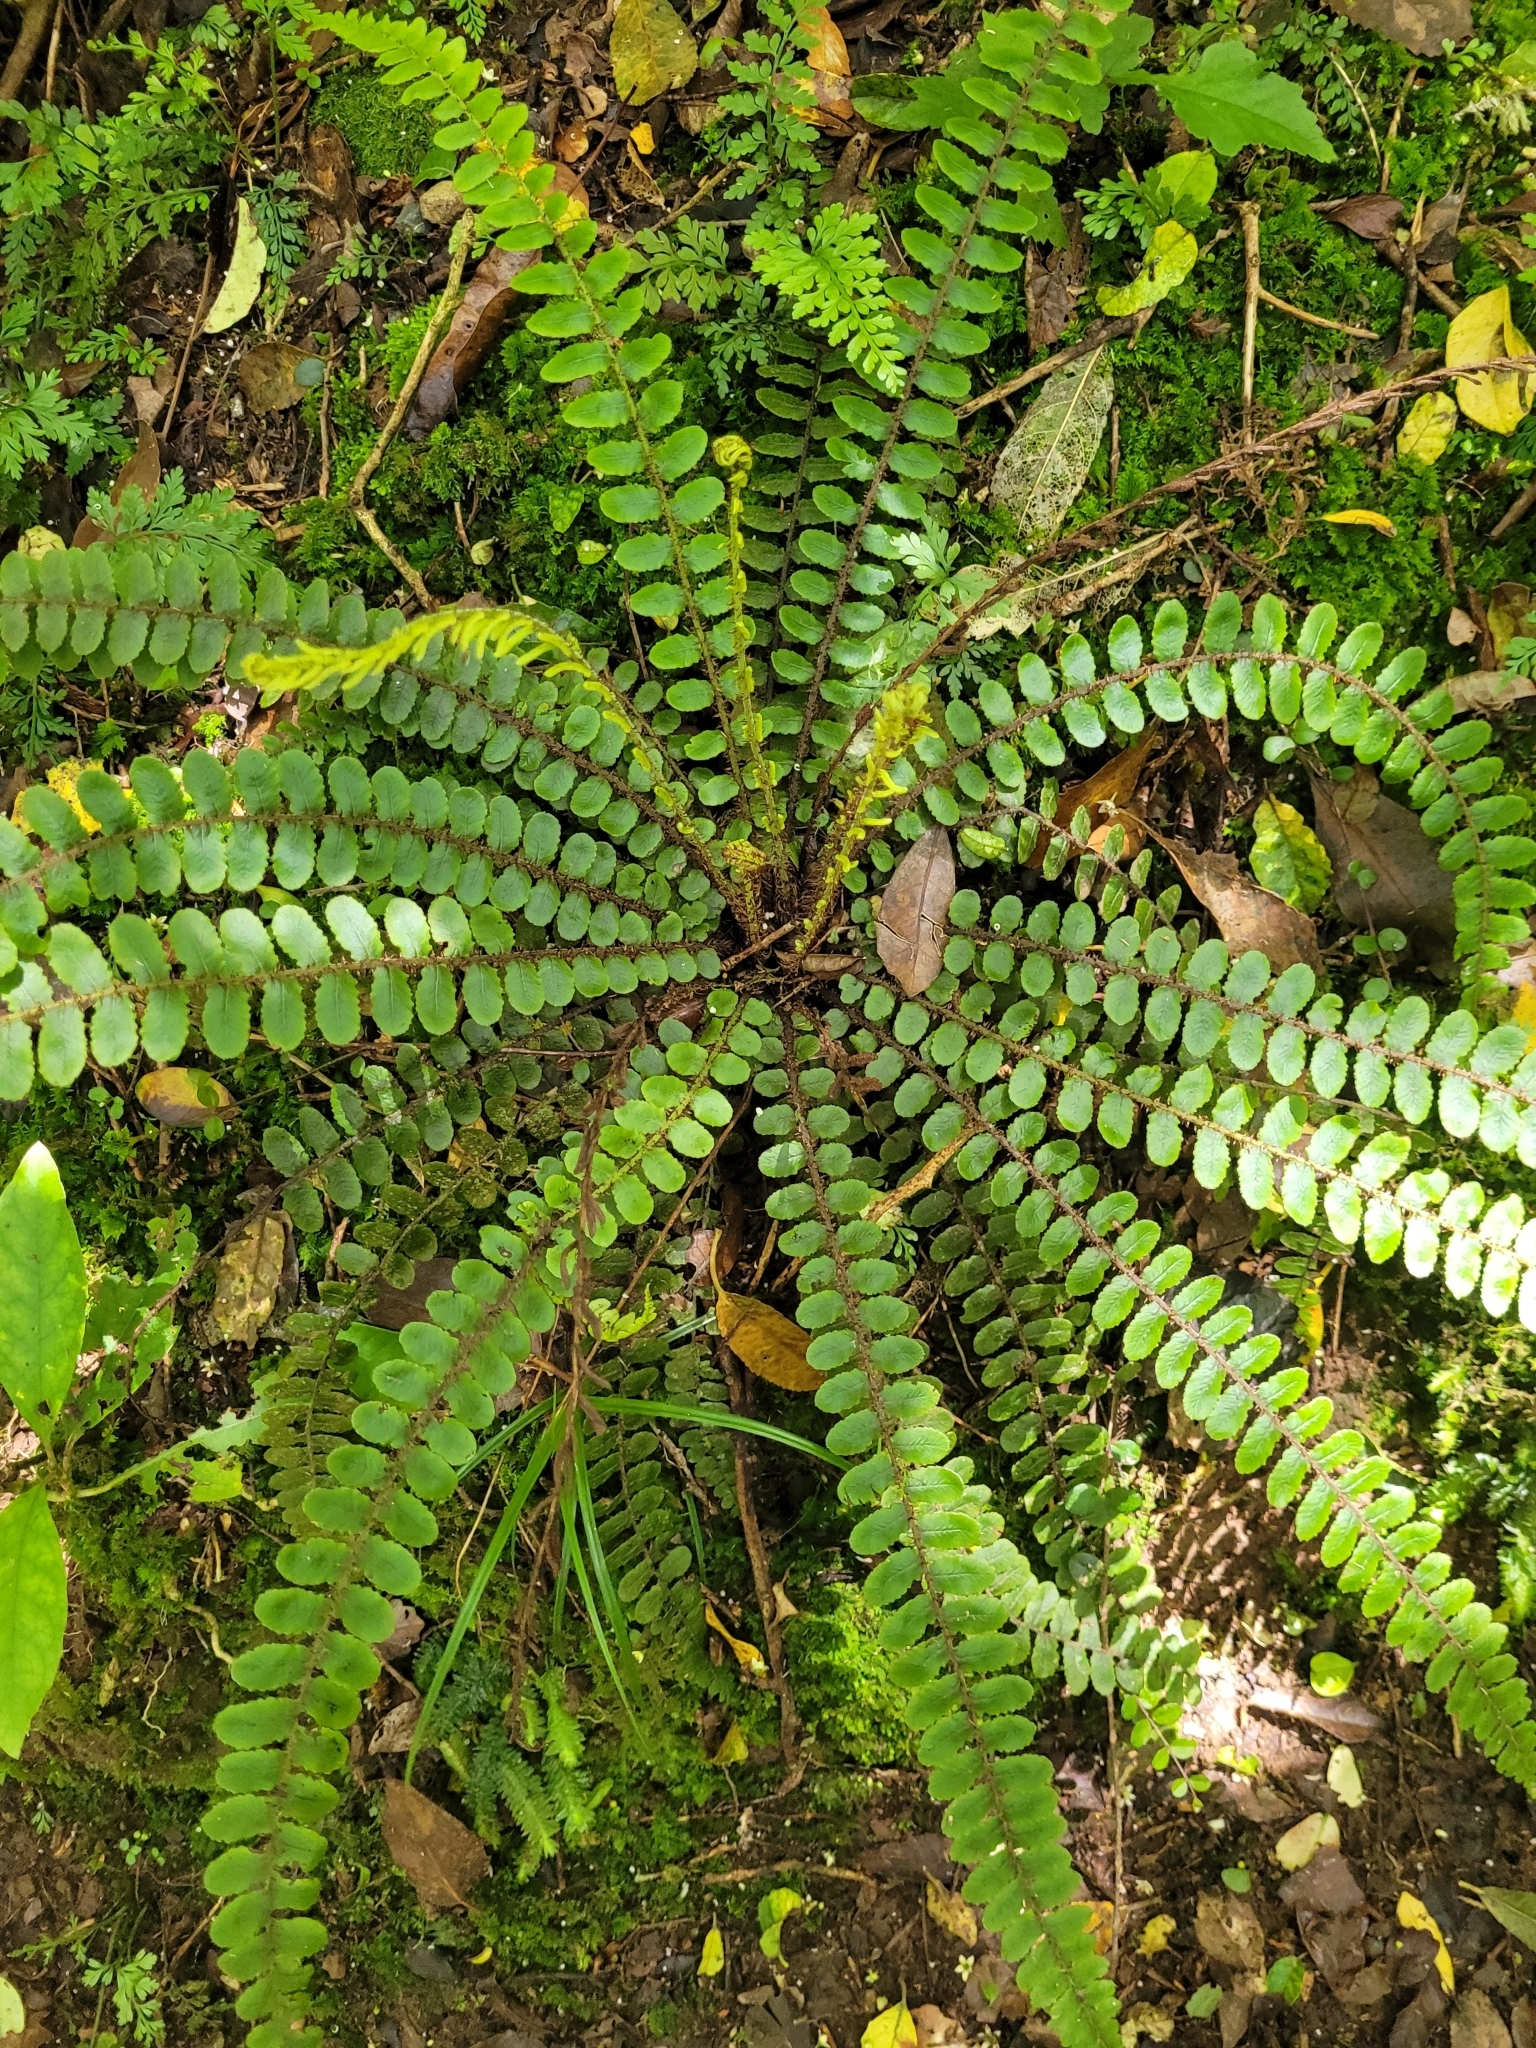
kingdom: Plantae
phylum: Tracheophyta
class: Polypodiopsida
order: Polypodiales
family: Blechnaceae
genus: Cranfillia
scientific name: Cranfillia fluviatilis
